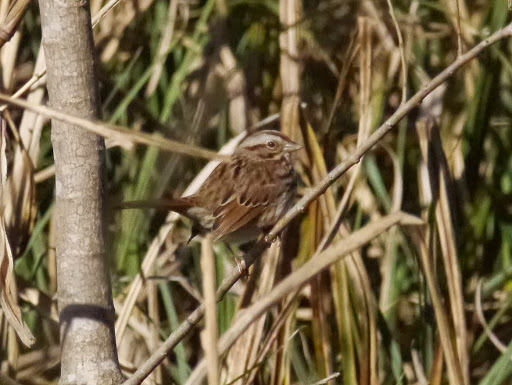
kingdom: Animalia
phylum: Chordata
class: Aves
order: Passeriformes
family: Passerellidae
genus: Melospiza
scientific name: Melospiza melodia
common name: Song sparrow
